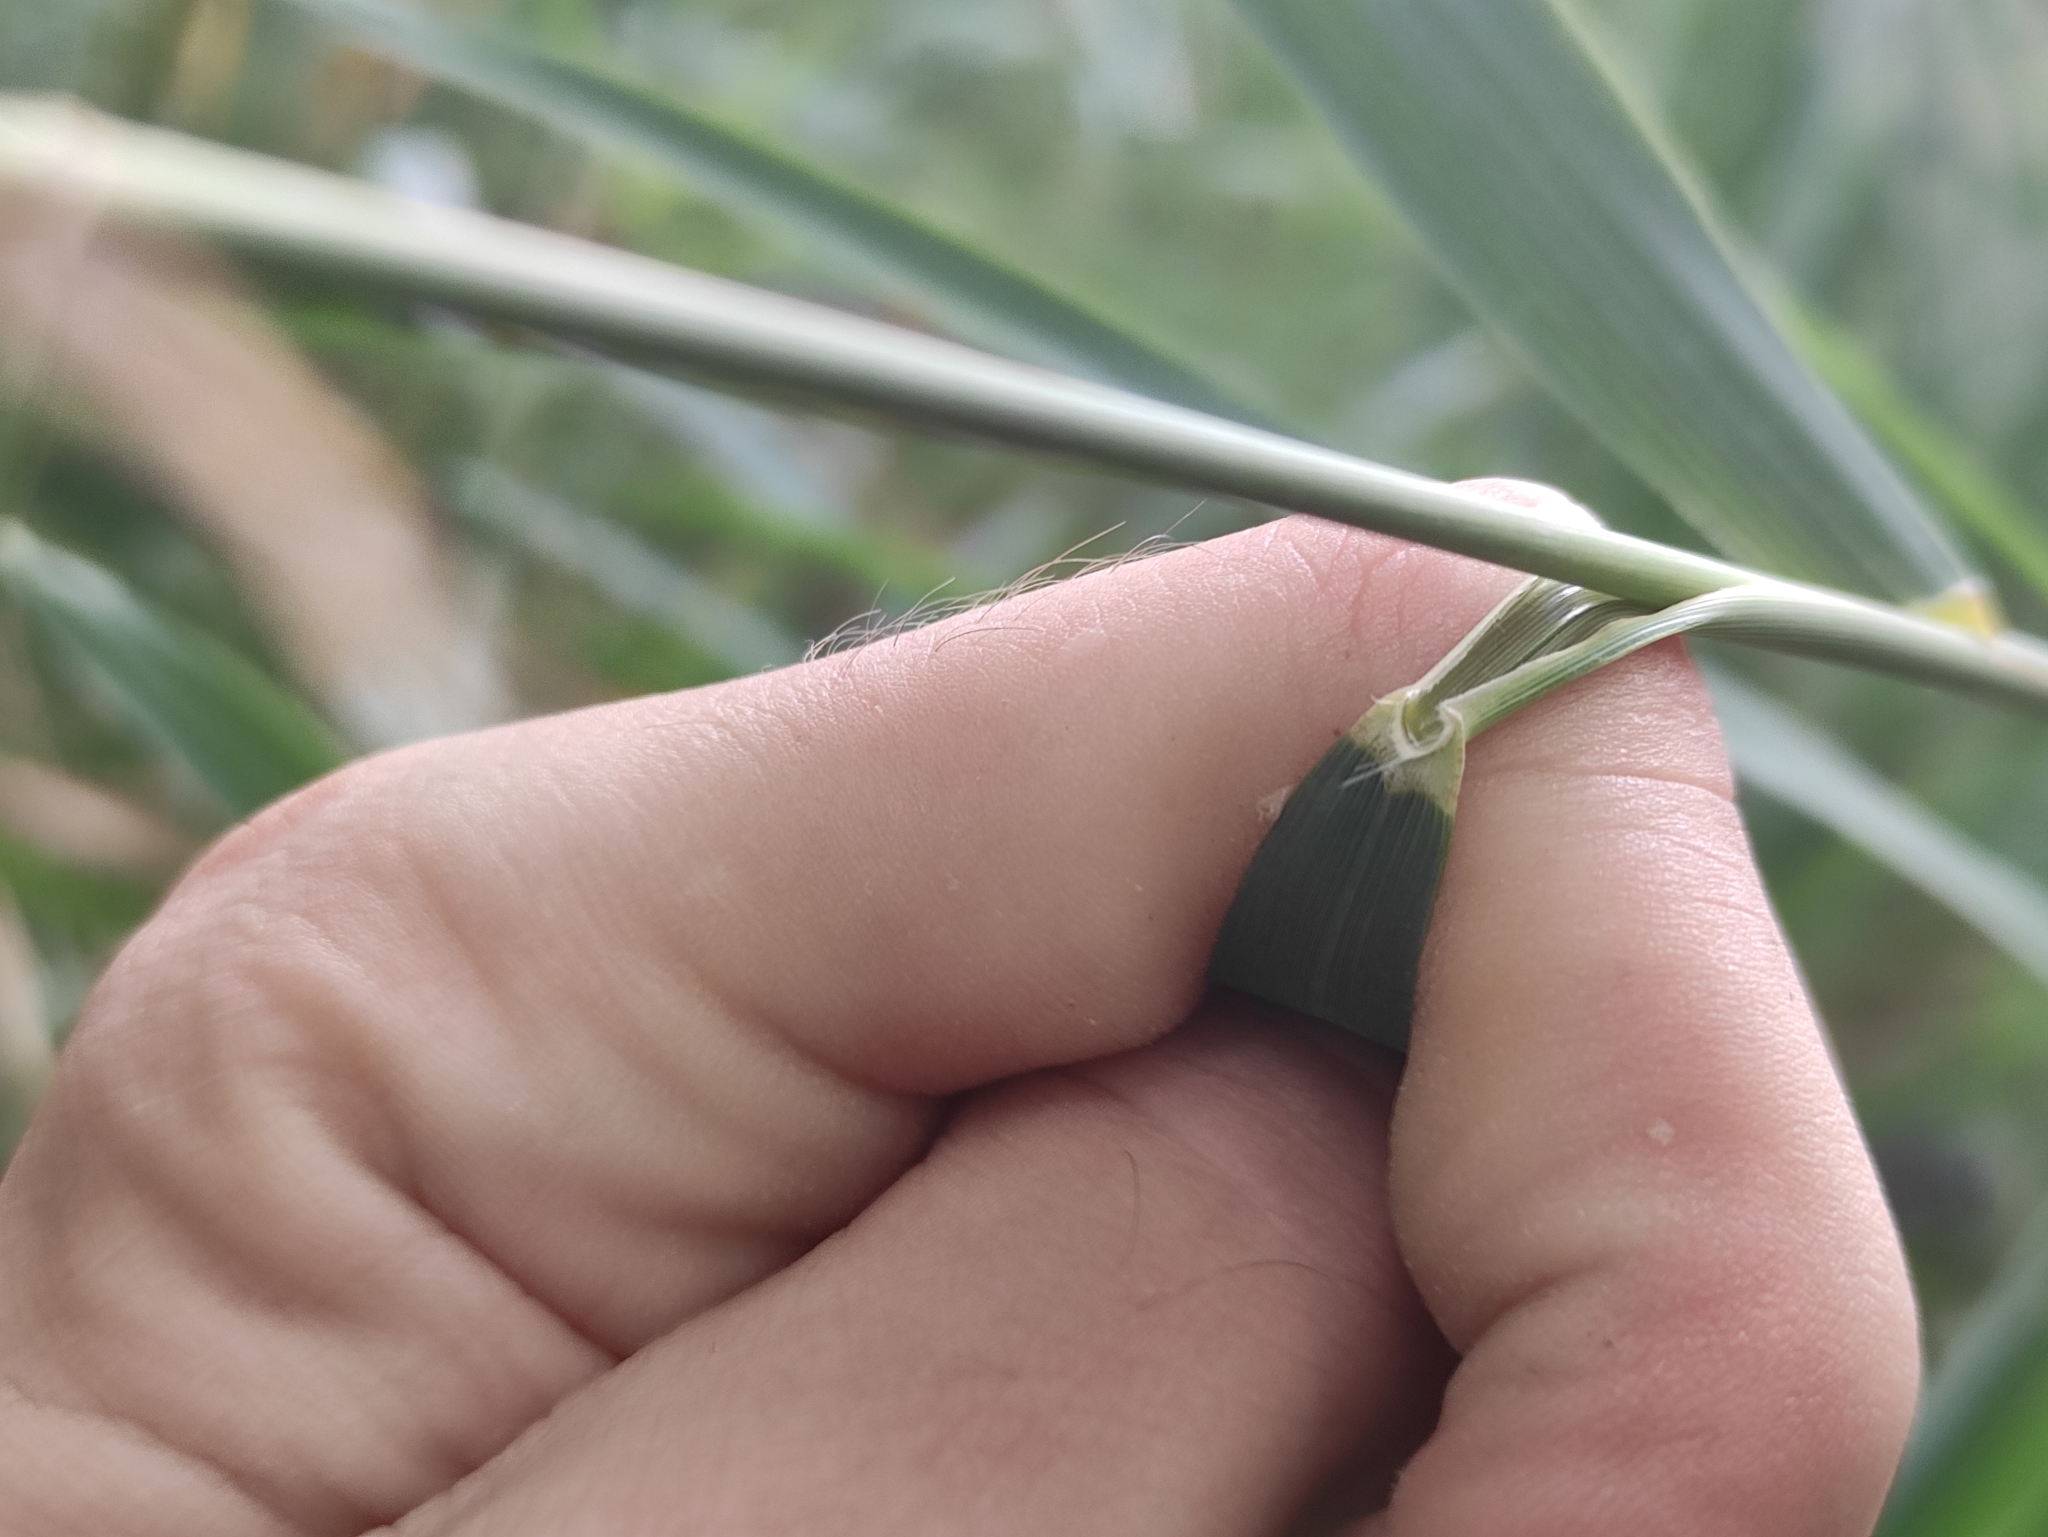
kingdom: Plantae
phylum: Tracheophyta
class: Liliopsida
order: Poales
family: Poaceae
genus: Phragmites
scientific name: Phragmites australis
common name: Common reed
